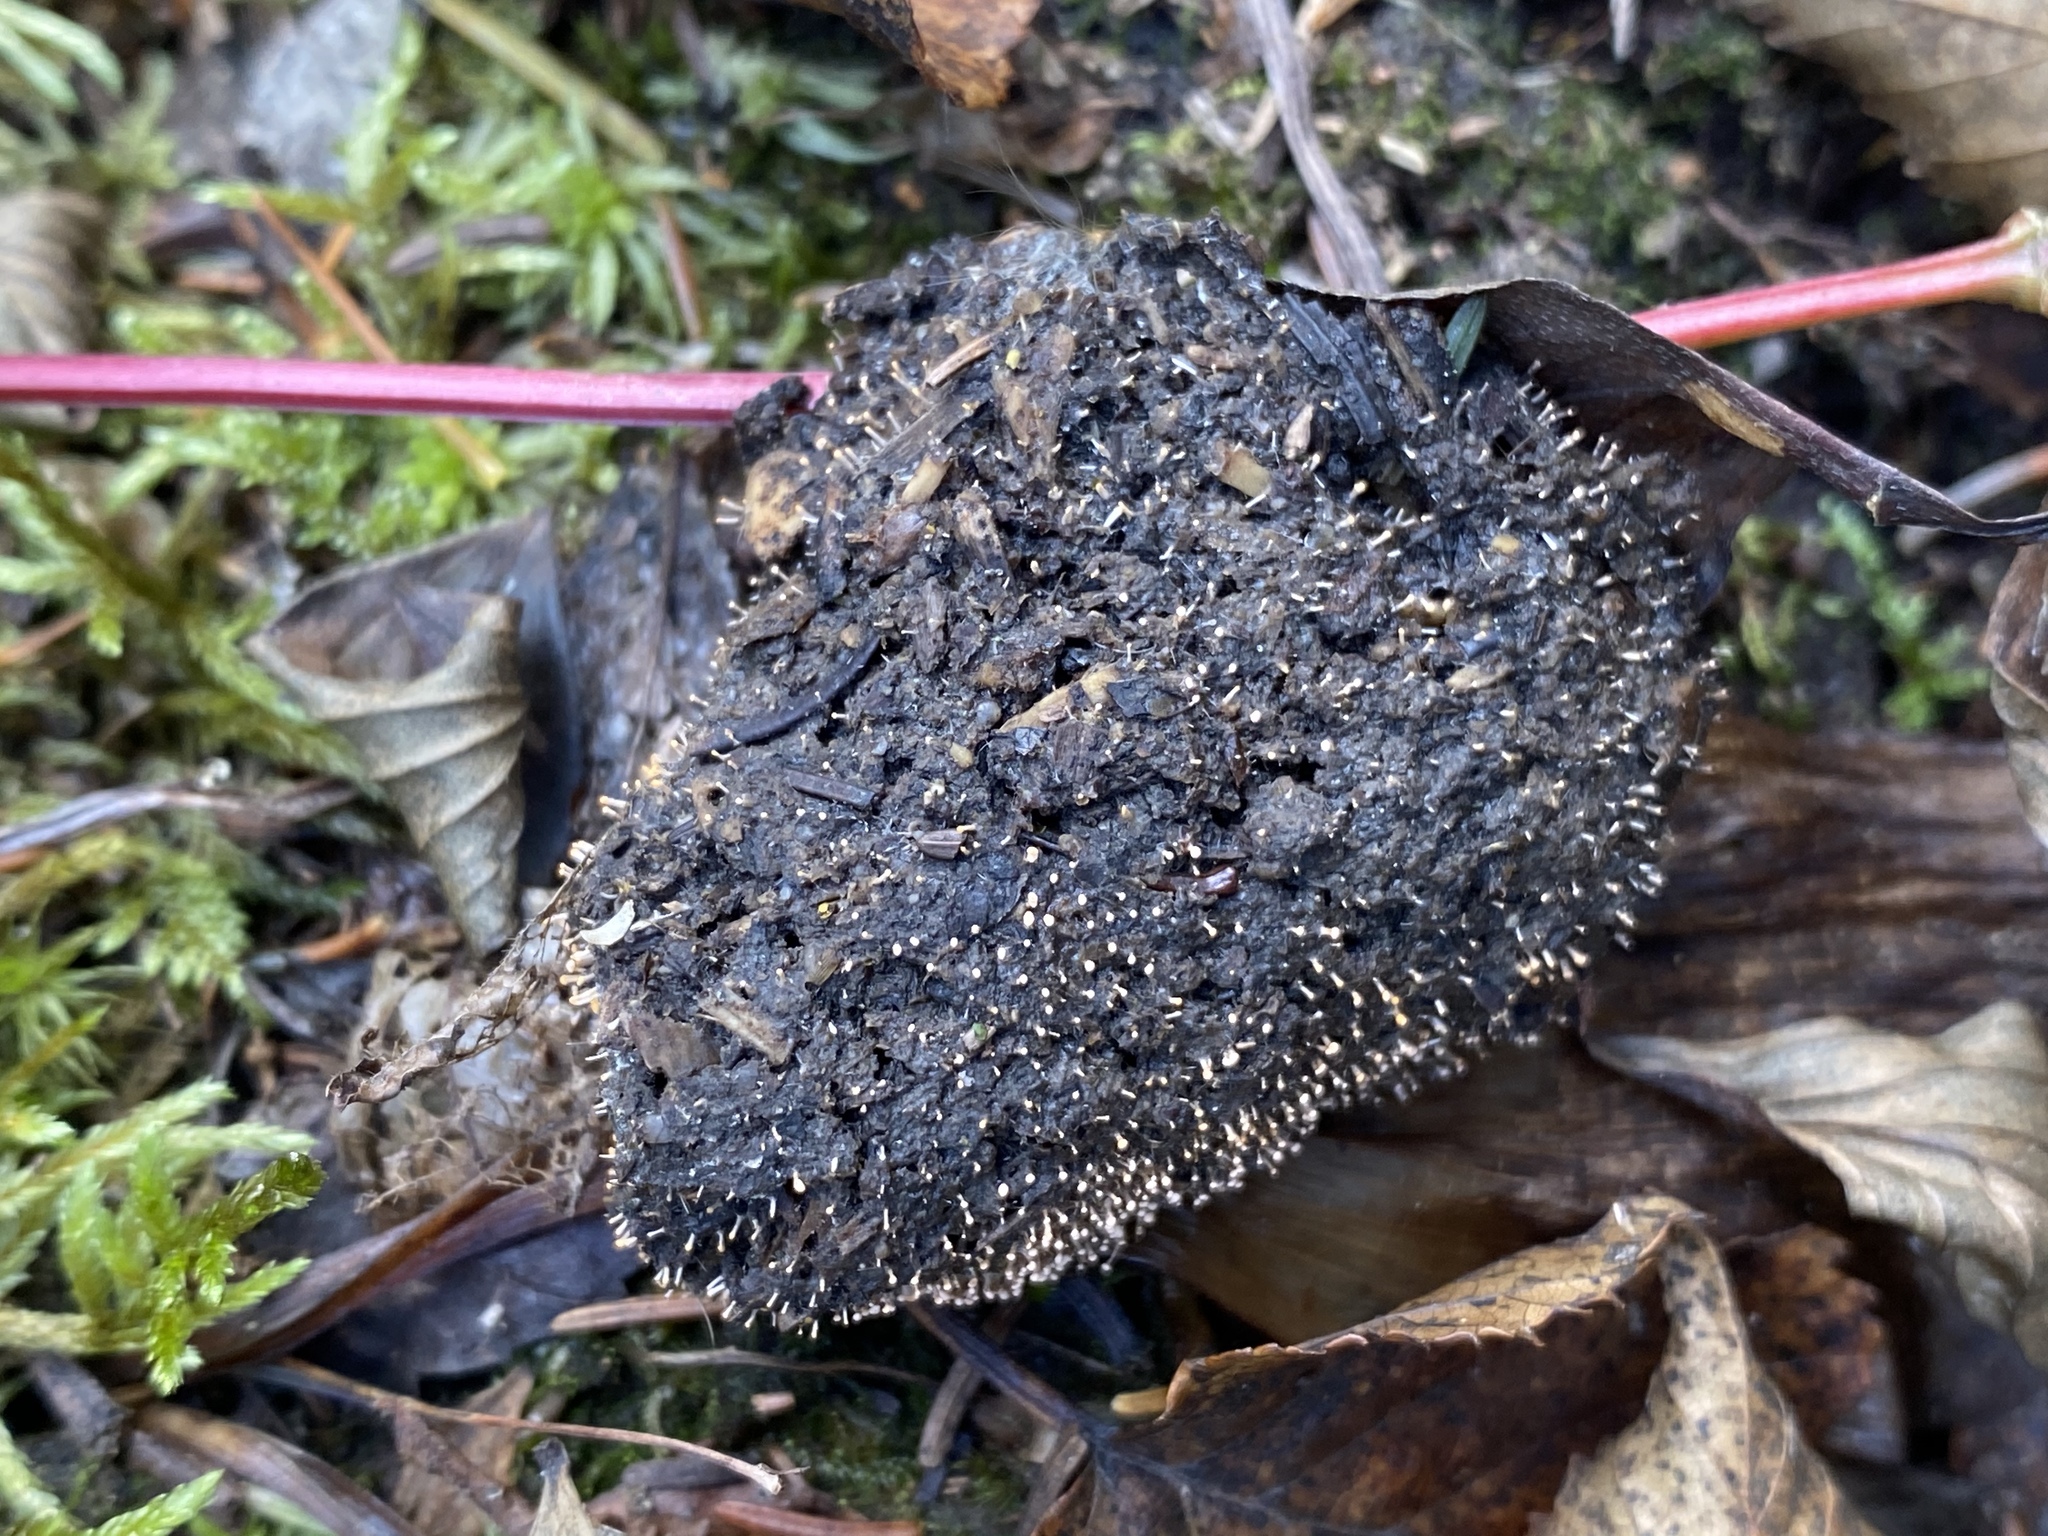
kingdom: Fungi
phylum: Ascomycota
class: Sordariomycetes
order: Hypocreales
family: Myrotheciomycetaceae
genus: Emericellopsis
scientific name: Emericellopsis
